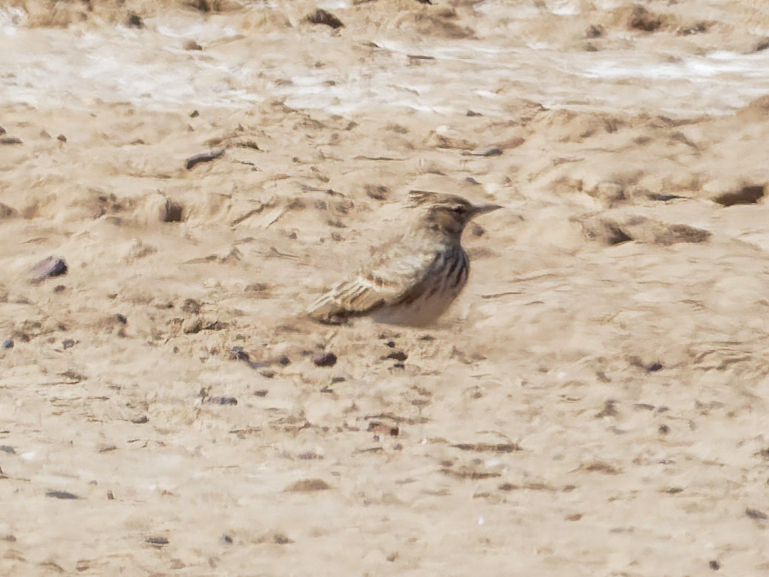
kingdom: Animalia
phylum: Chordata
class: Aves
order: Passeriformes
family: Alaudidae
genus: Galerida
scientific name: Galerida cristata
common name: Crested lark
